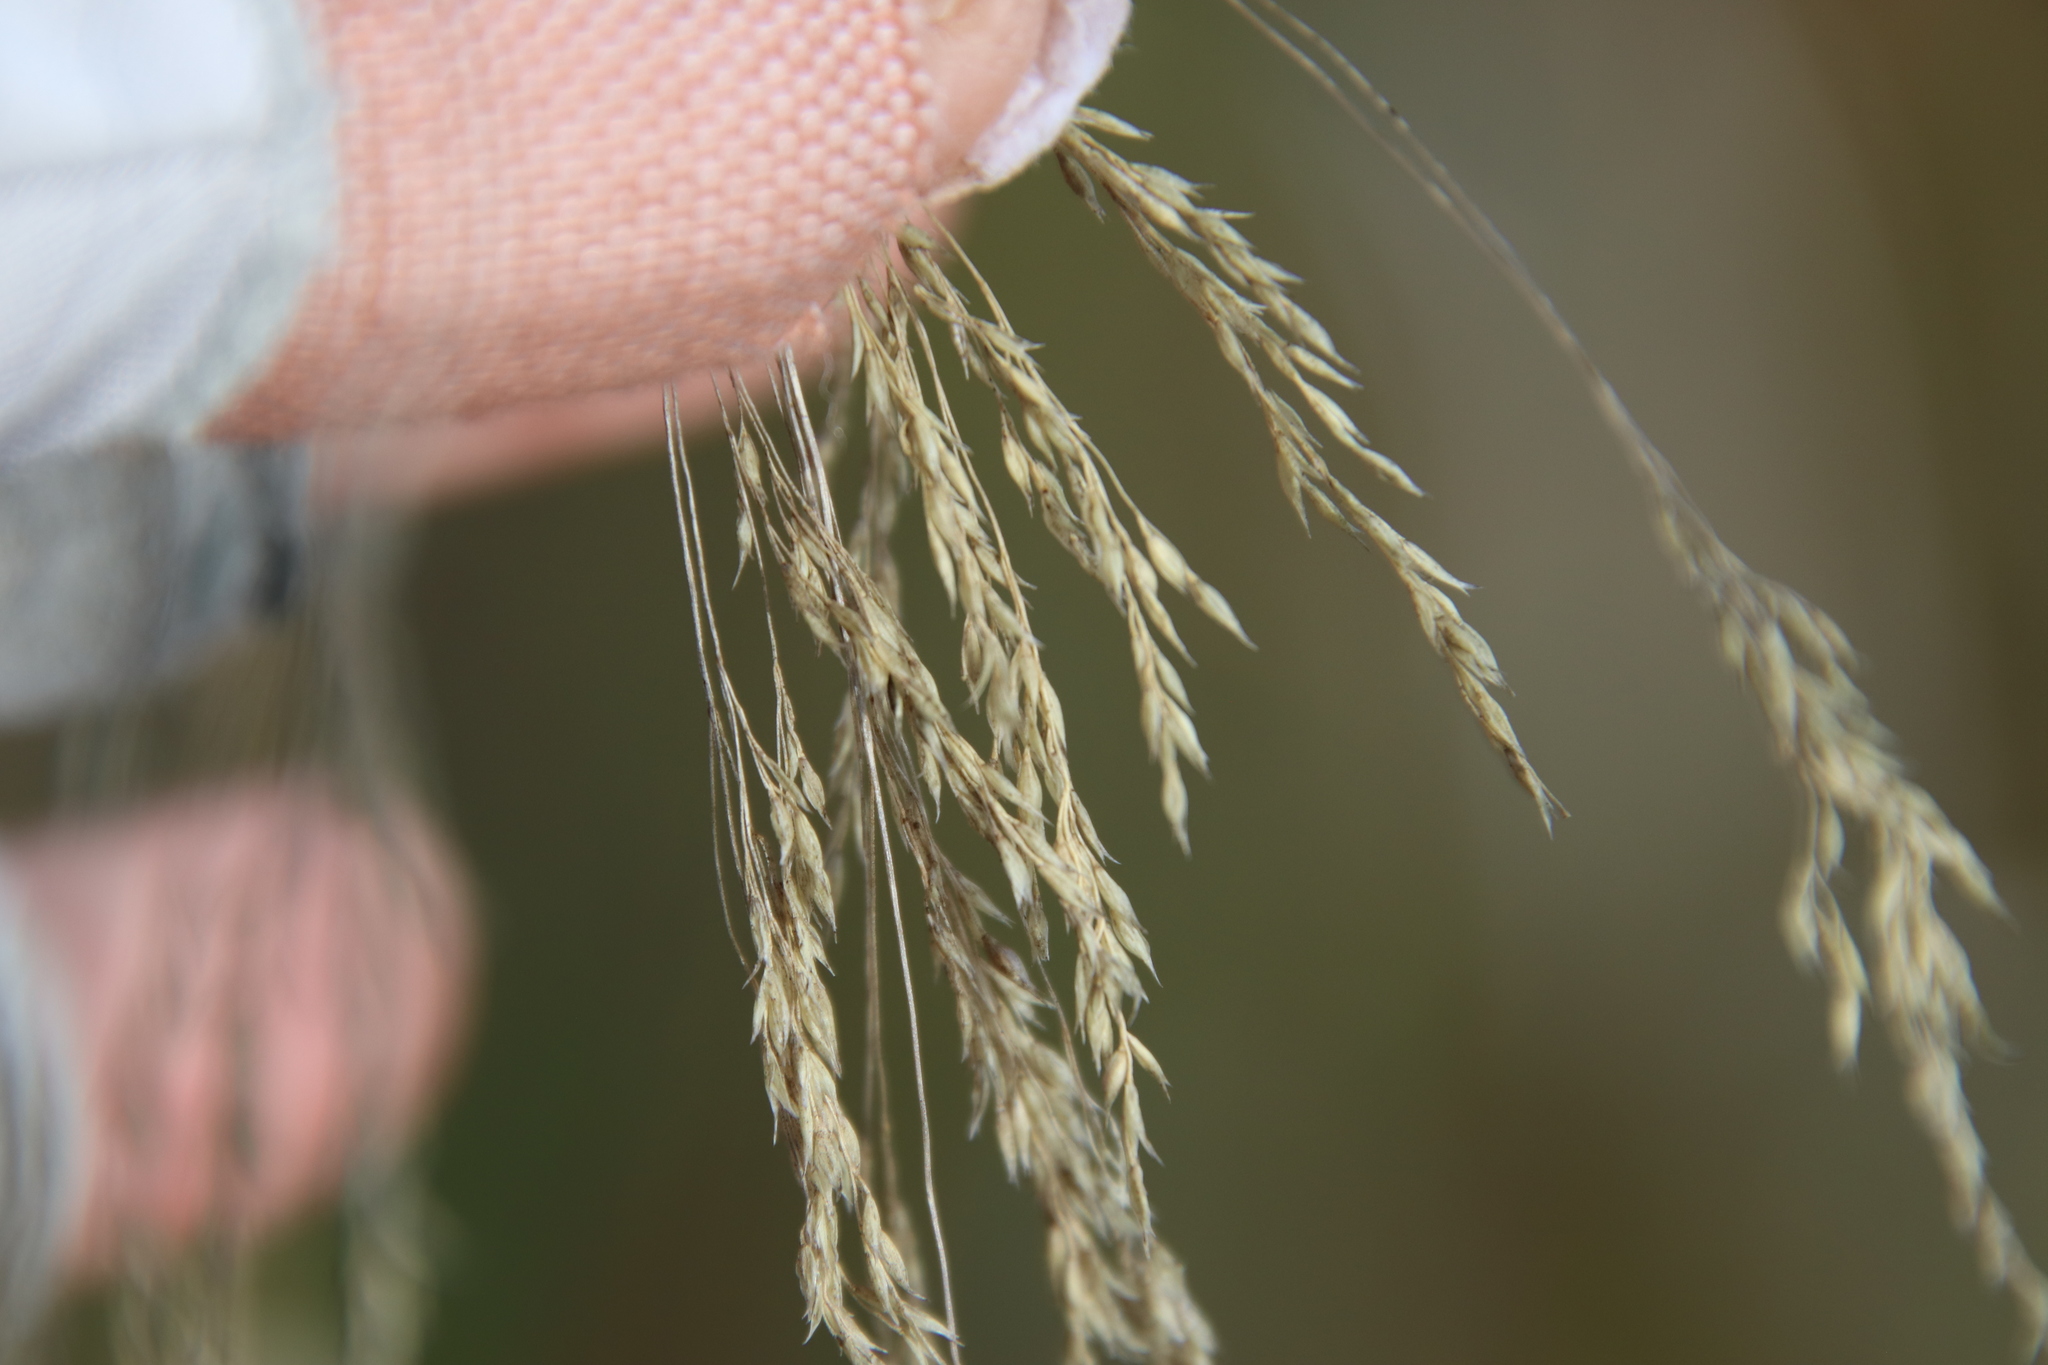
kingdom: Plantae
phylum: Tracheophyta
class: Liliopsida
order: Poales
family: Poaceae
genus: Oloptum
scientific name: Oloptum miliaceum
